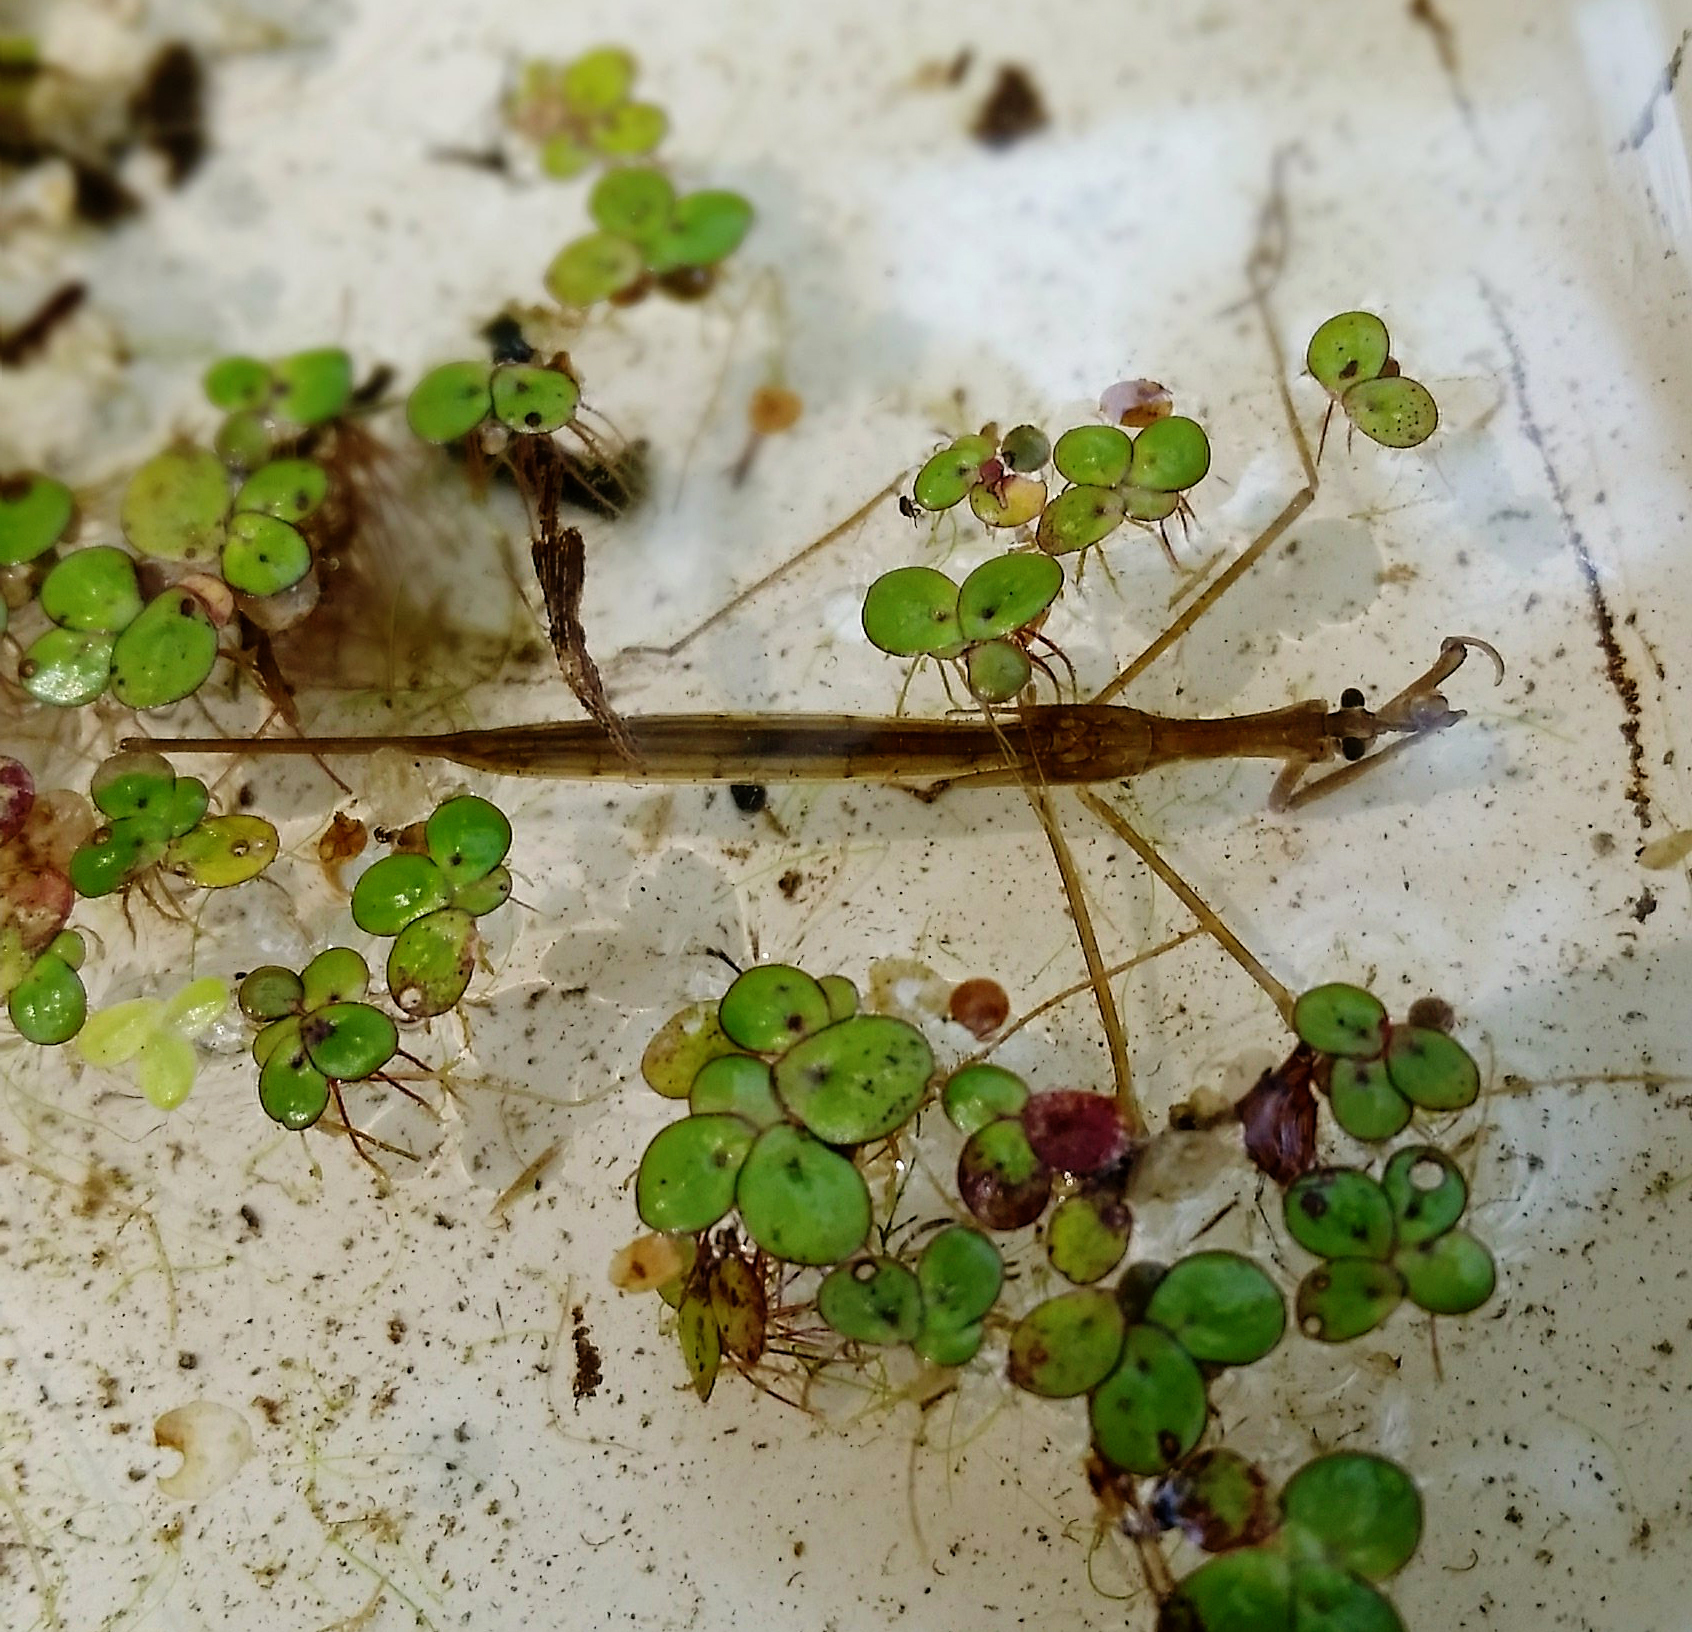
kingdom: Animalia
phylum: Arthropoda
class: Insecta
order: Hemiptera
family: Nepidae
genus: Ranatra
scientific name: Ranatra
